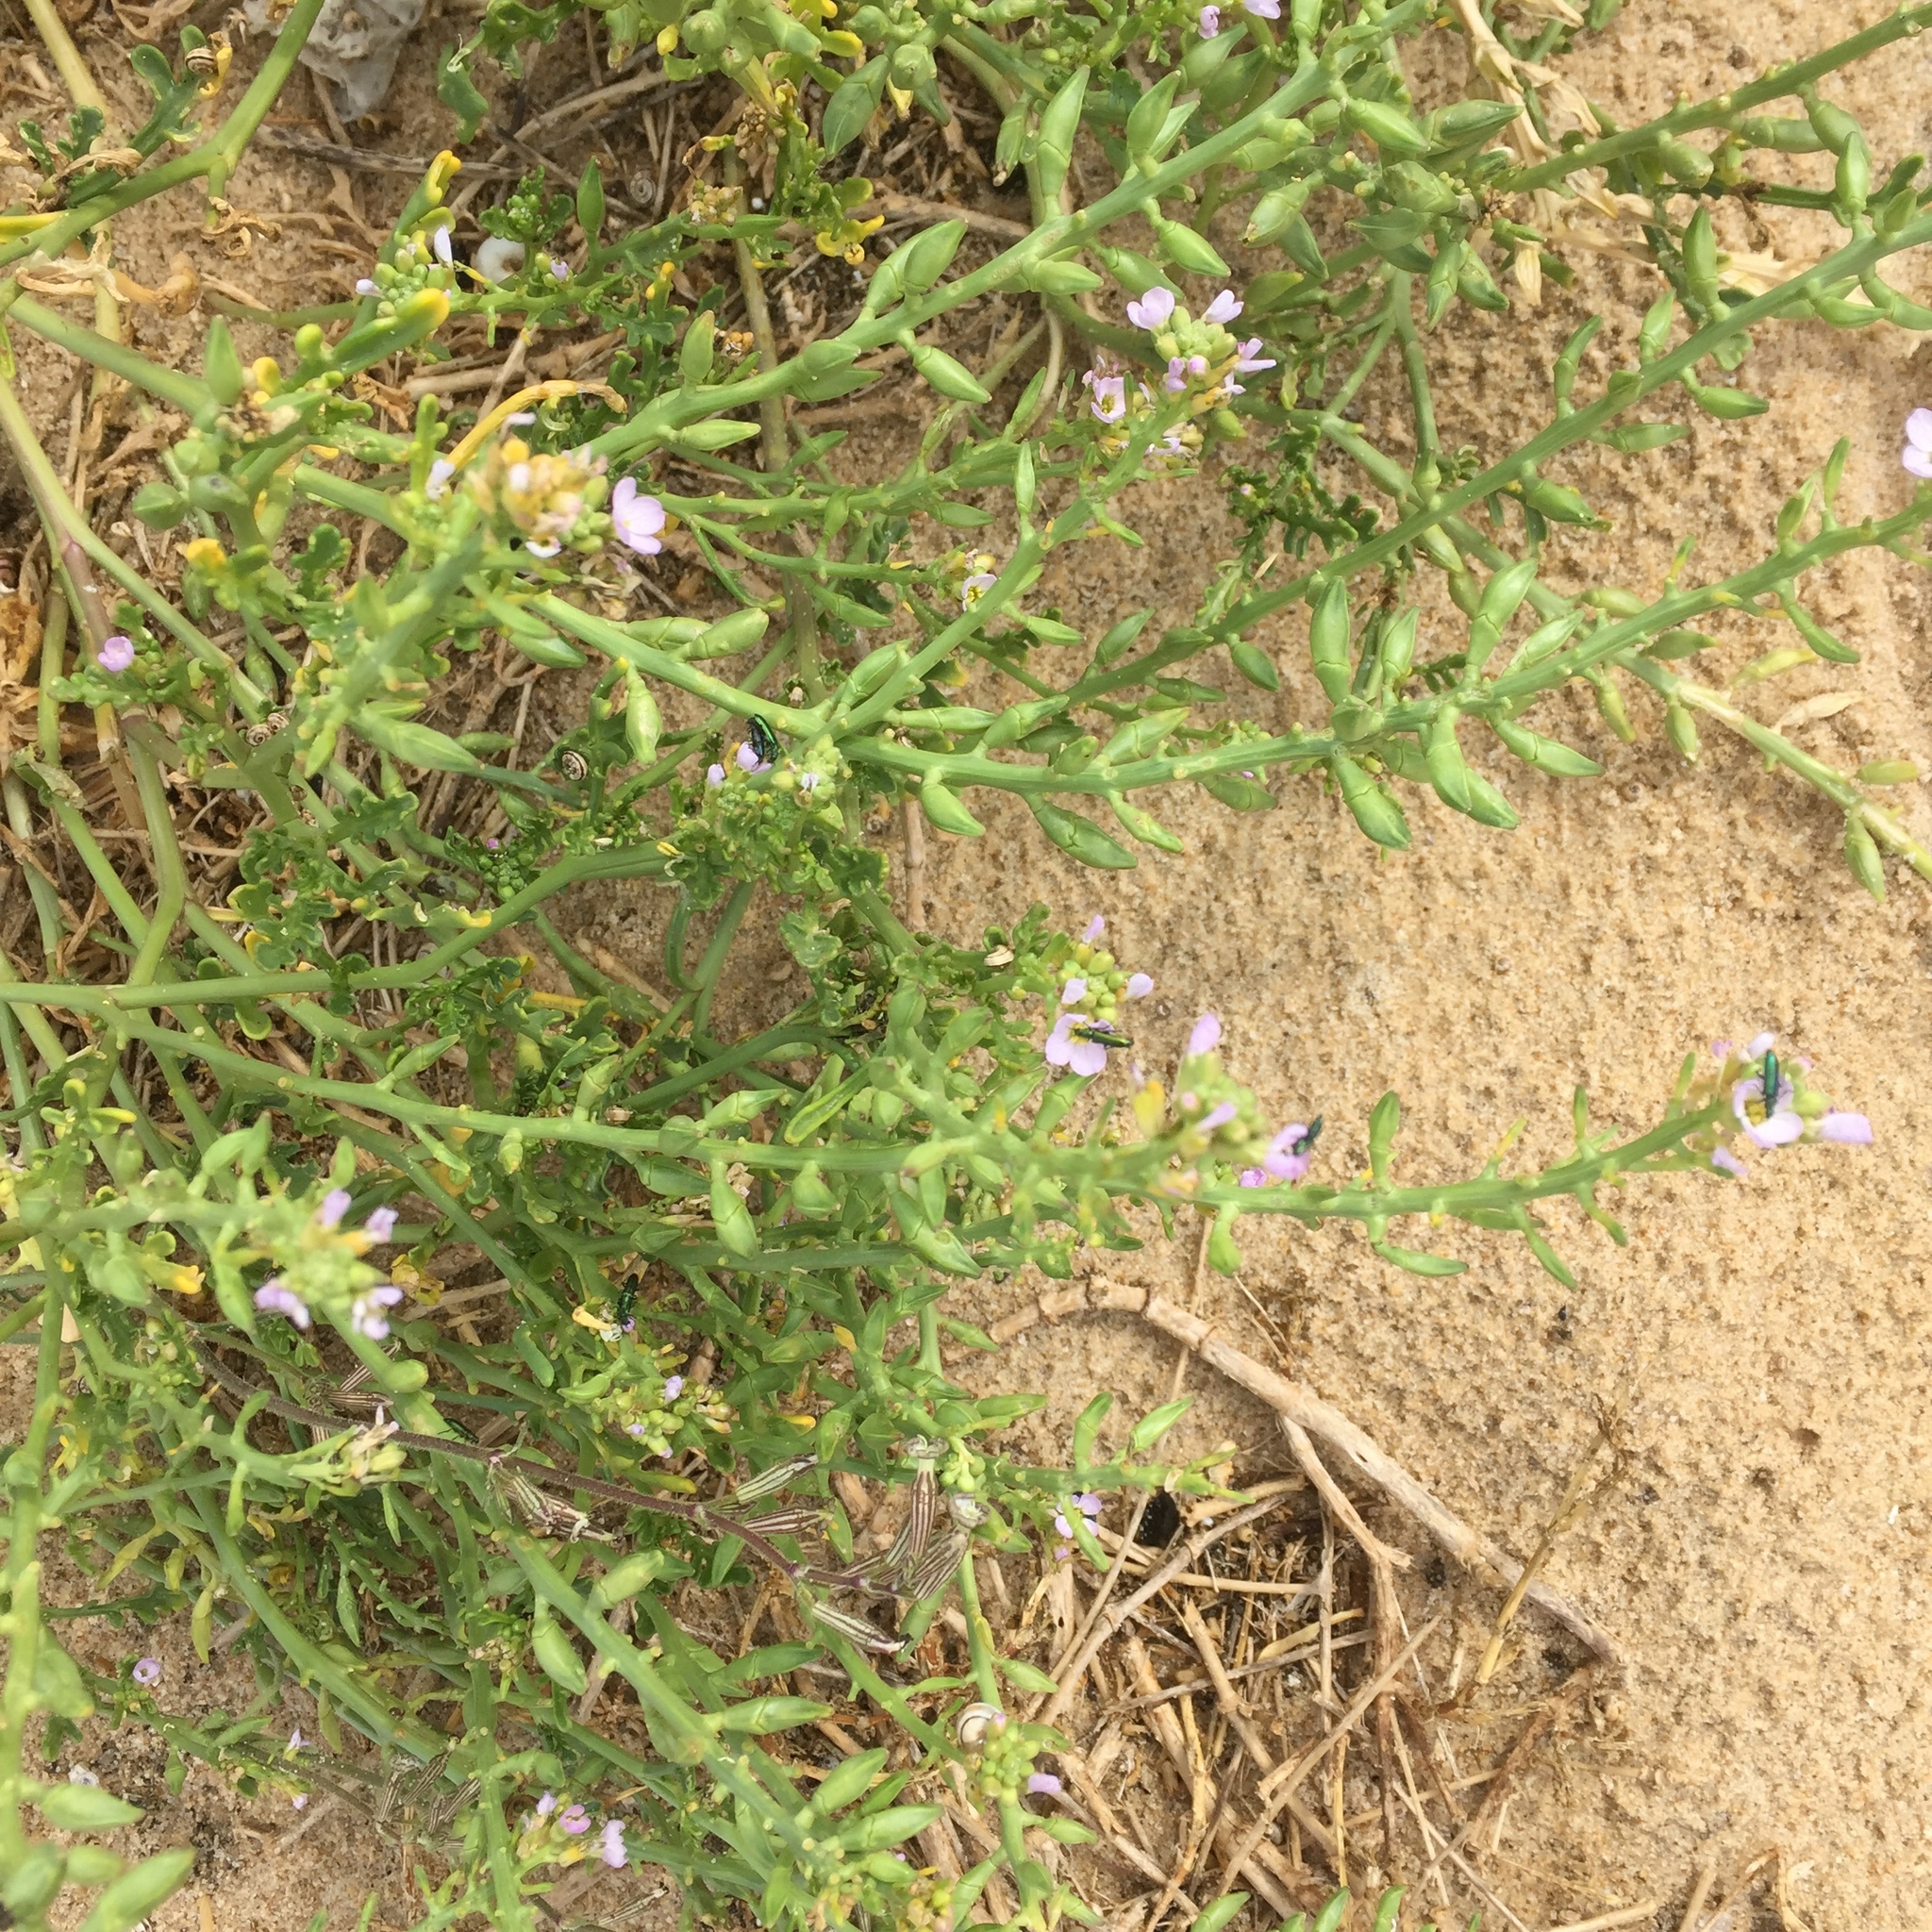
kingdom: Plantae
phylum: Tracheophyta
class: Magnoliopsida
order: Brassicales
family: Brassicaceae
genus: Cakile
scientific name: Cakile maritima
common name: Sea rocket
